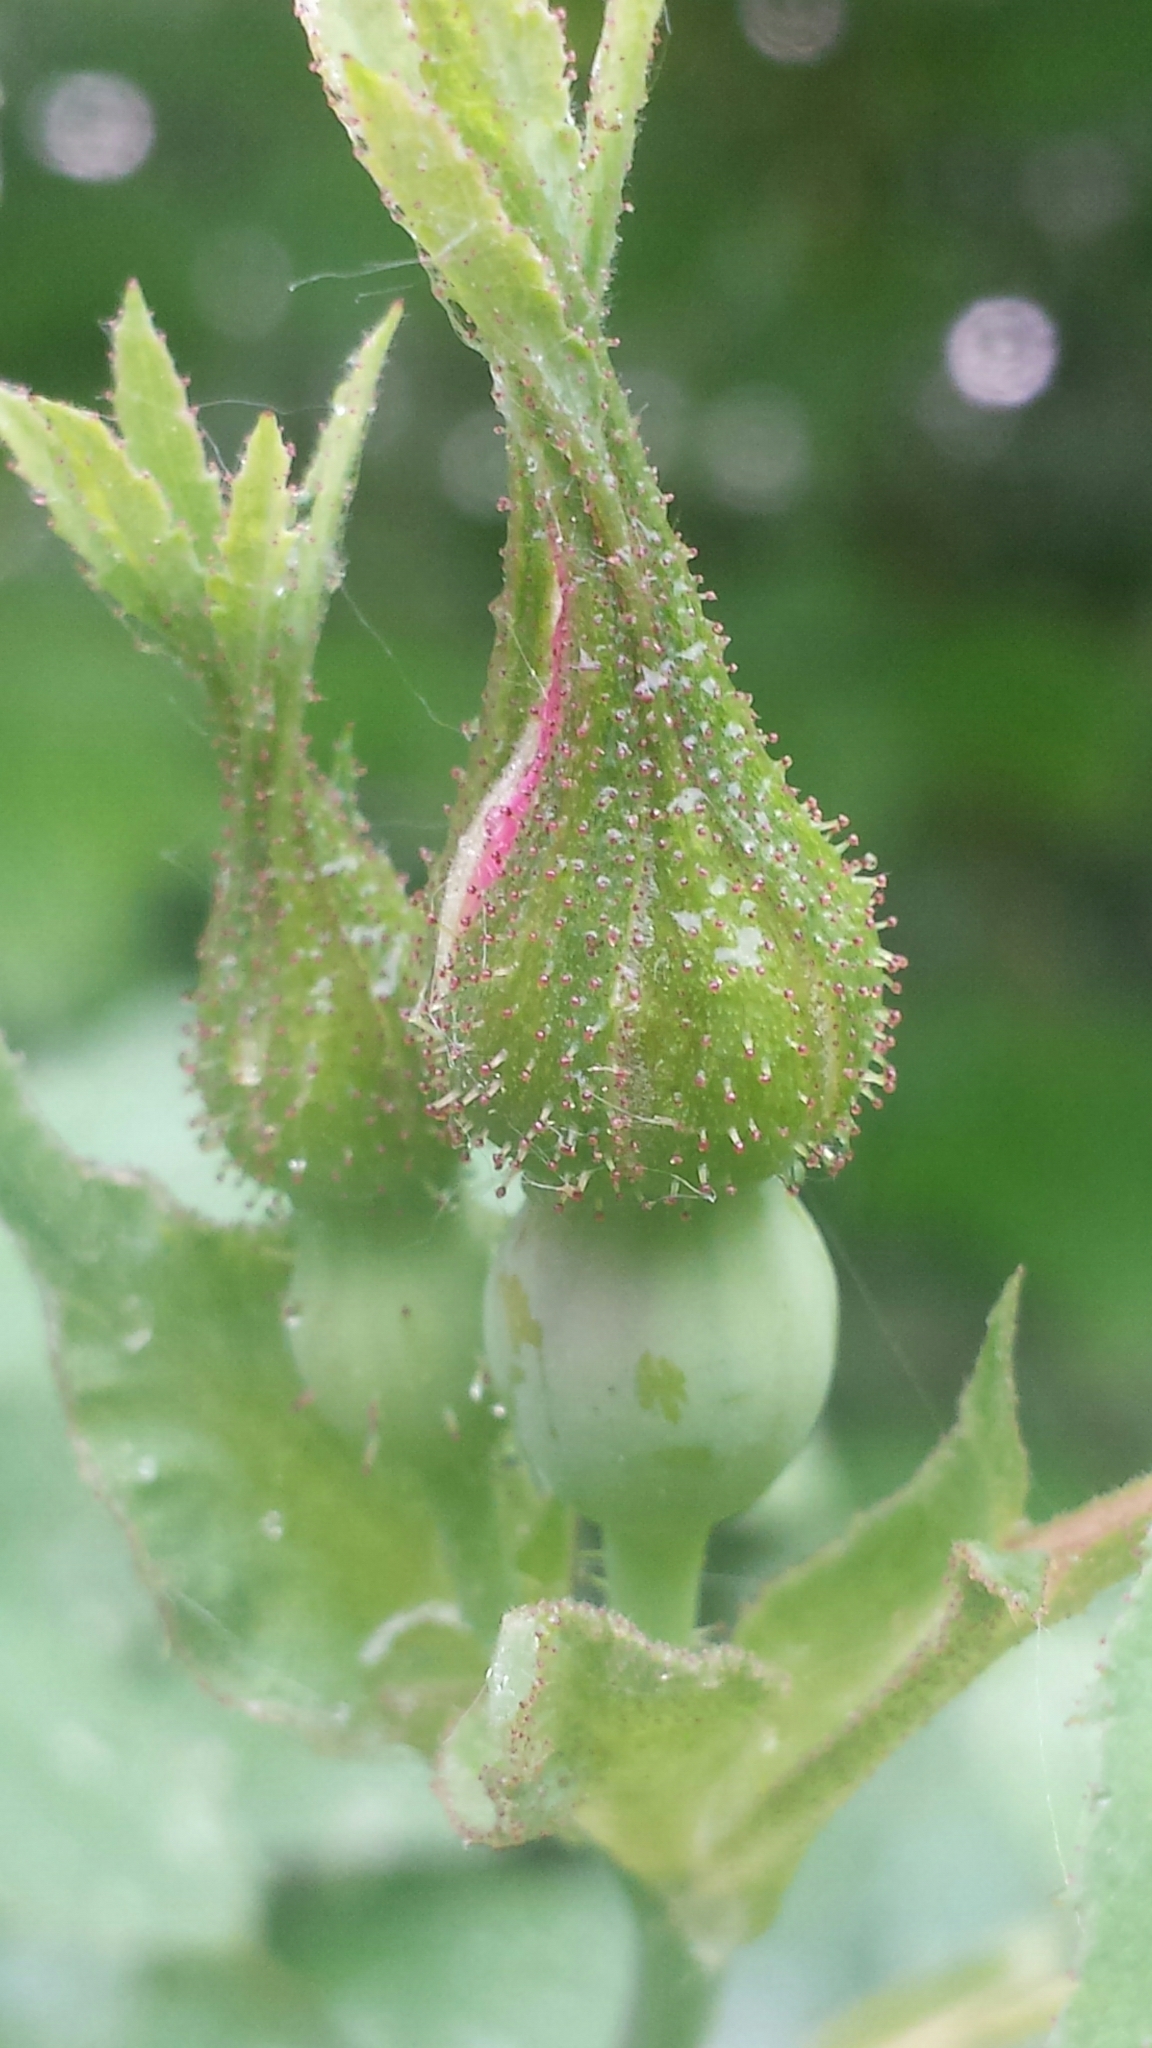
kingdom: Plantae
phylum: Tracheophyta
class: Magnoliopsida
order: Rosales
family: Rosaceae
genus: Rosa
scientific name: Rosa sherardii
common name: Sherard's downy rose
